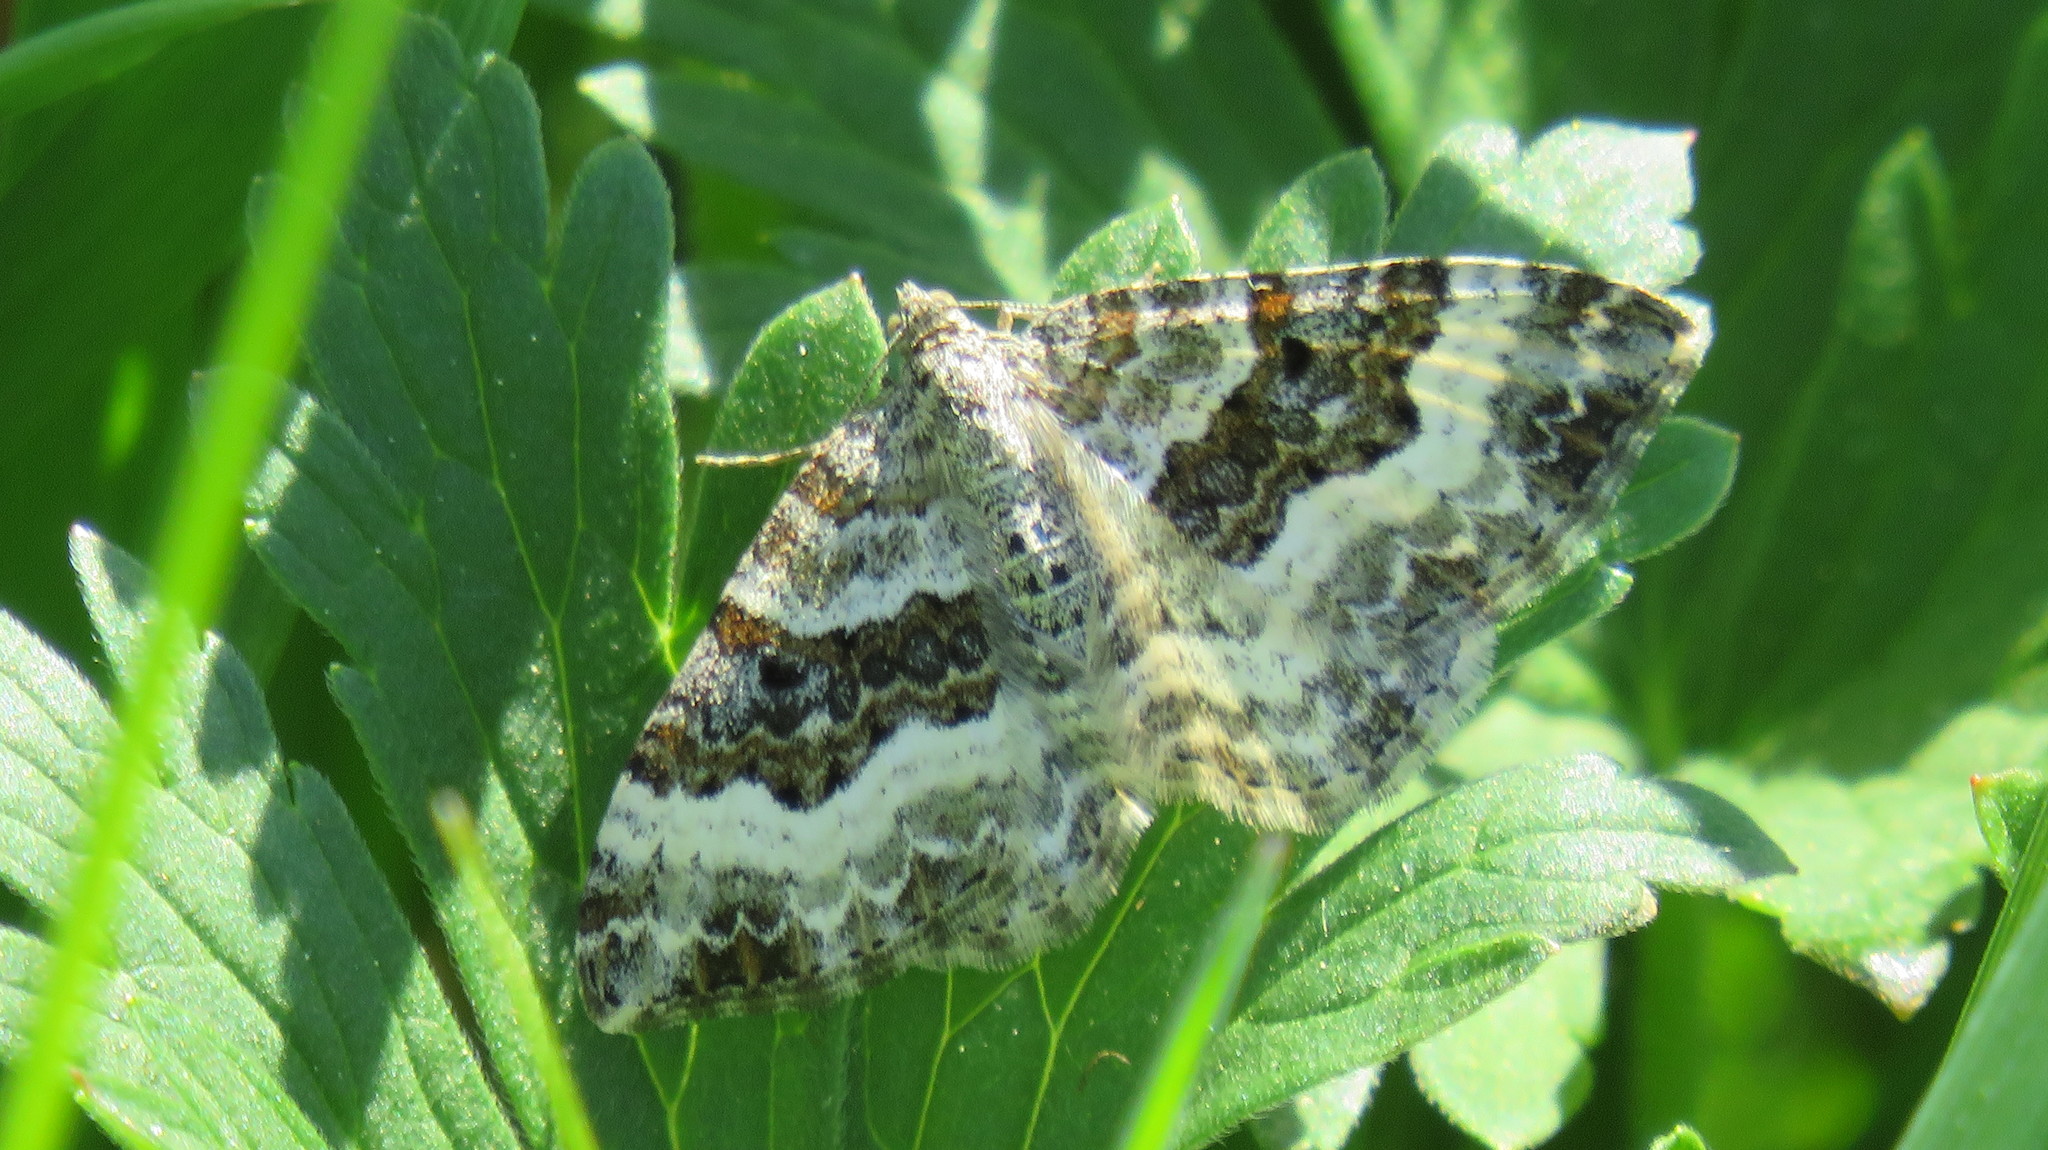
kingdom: Animalia
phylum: Arthropoda
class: Insecta
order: Lepidoptera
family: Geometridae
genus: Epirrhoe
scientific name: Epirrhoe alternata
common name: Common carpet
